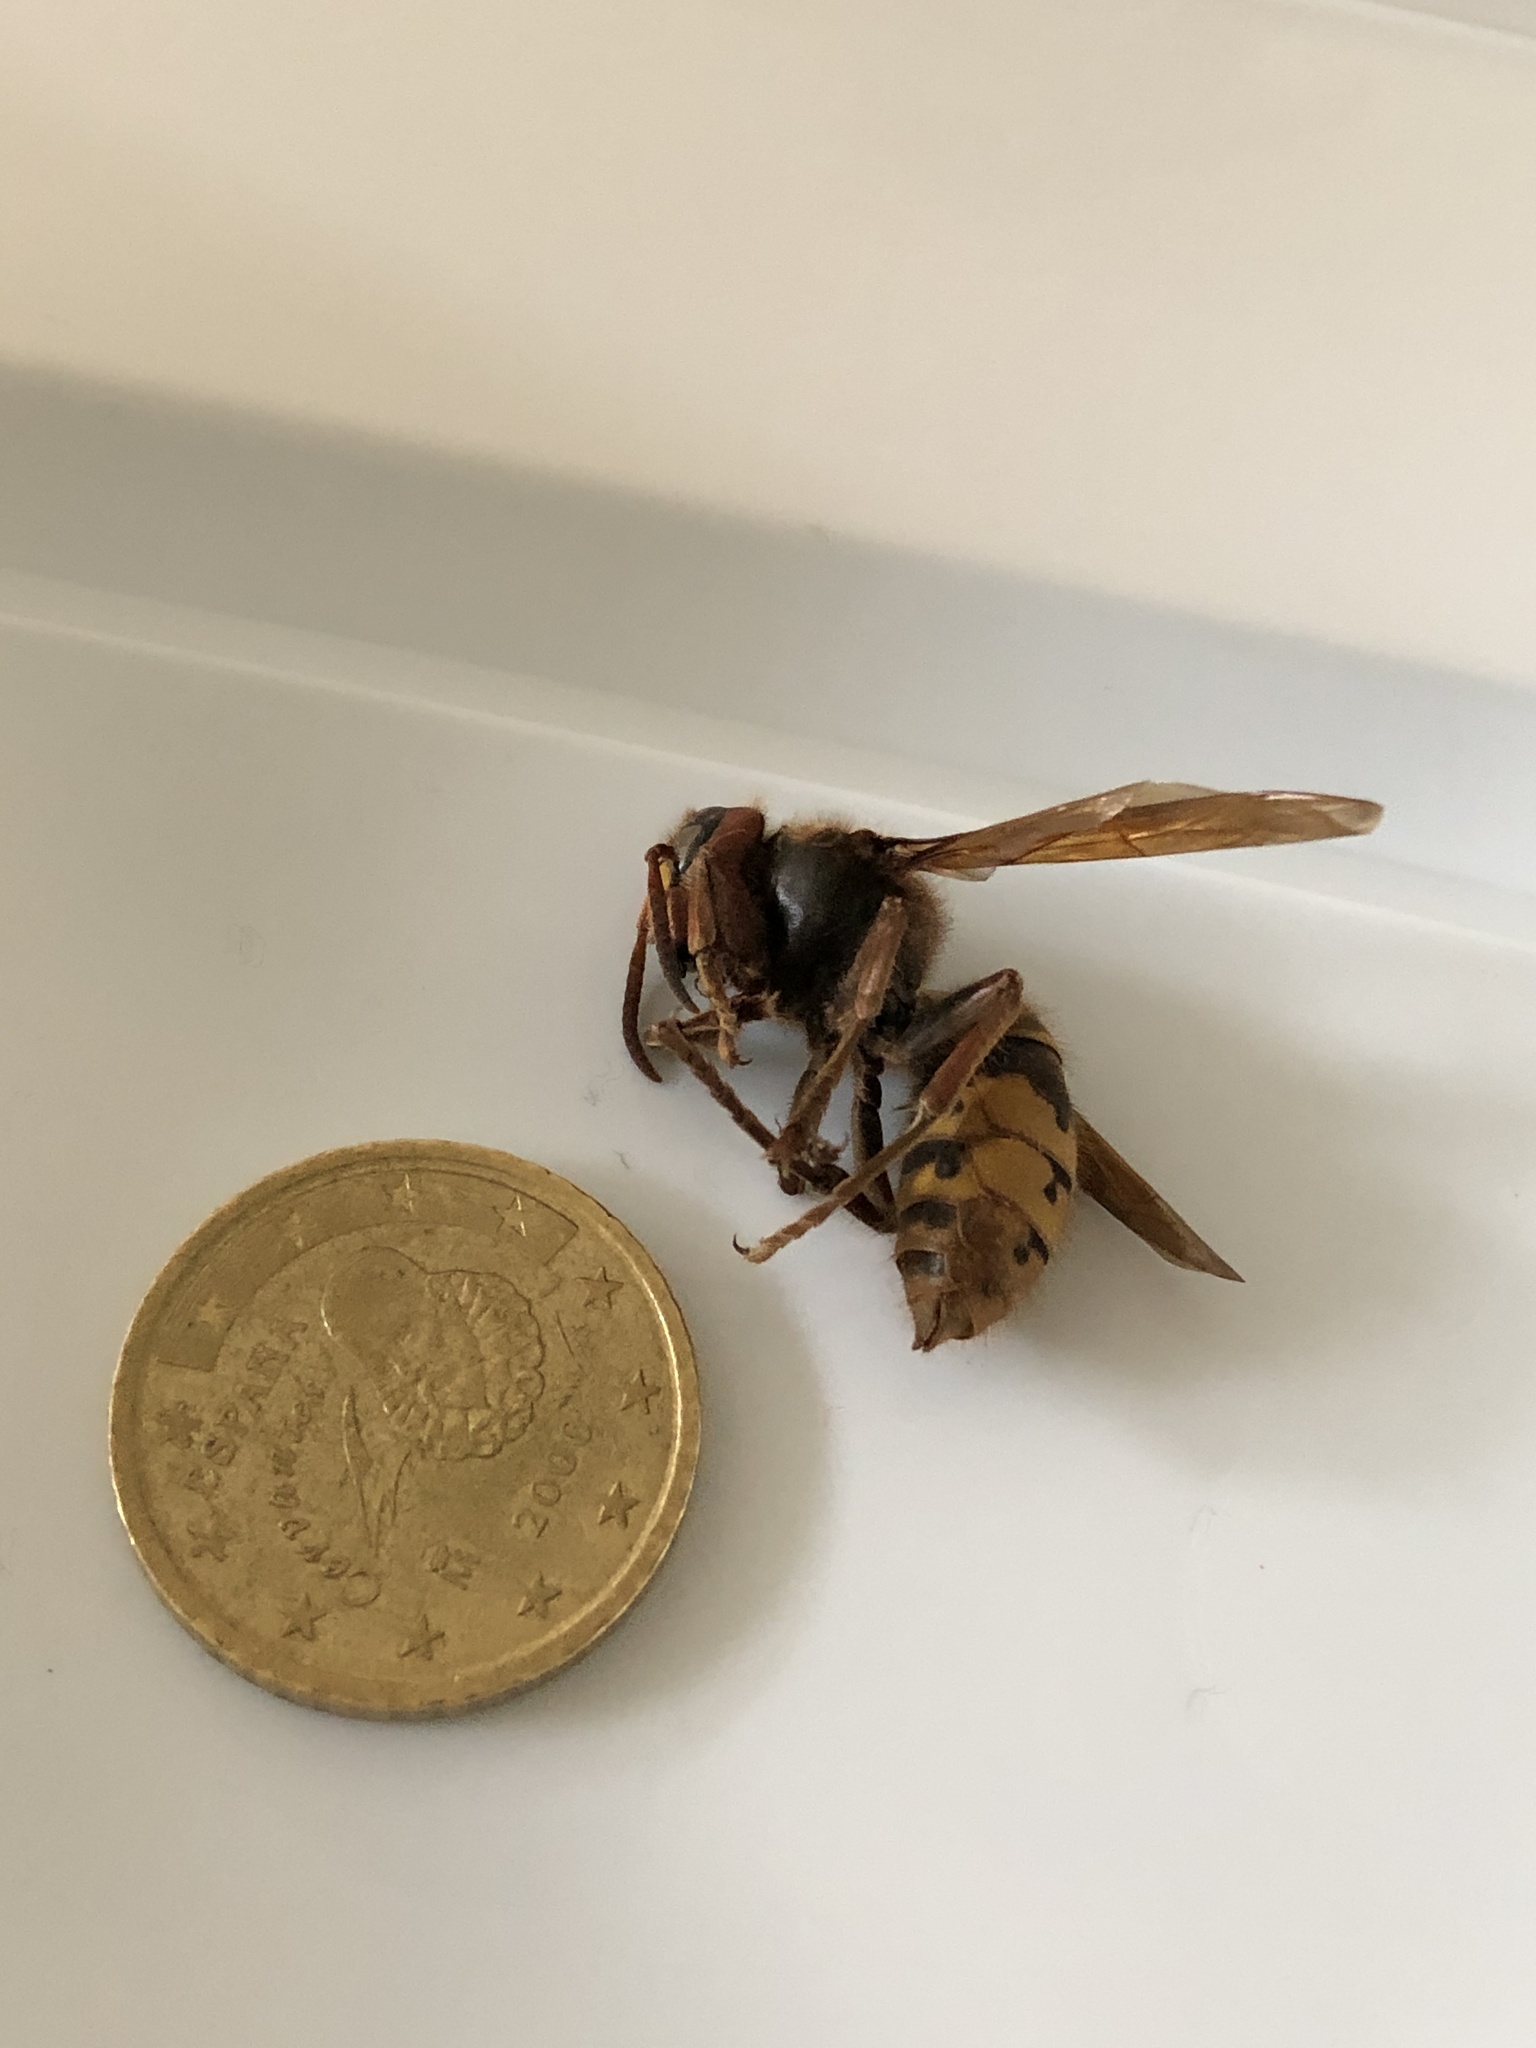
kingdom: Animalia
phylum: Arthropoda
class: Insecta
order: Hymenoptera
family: Vespidae
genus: Vespa
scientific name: Vespa crabro
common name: Hornet
